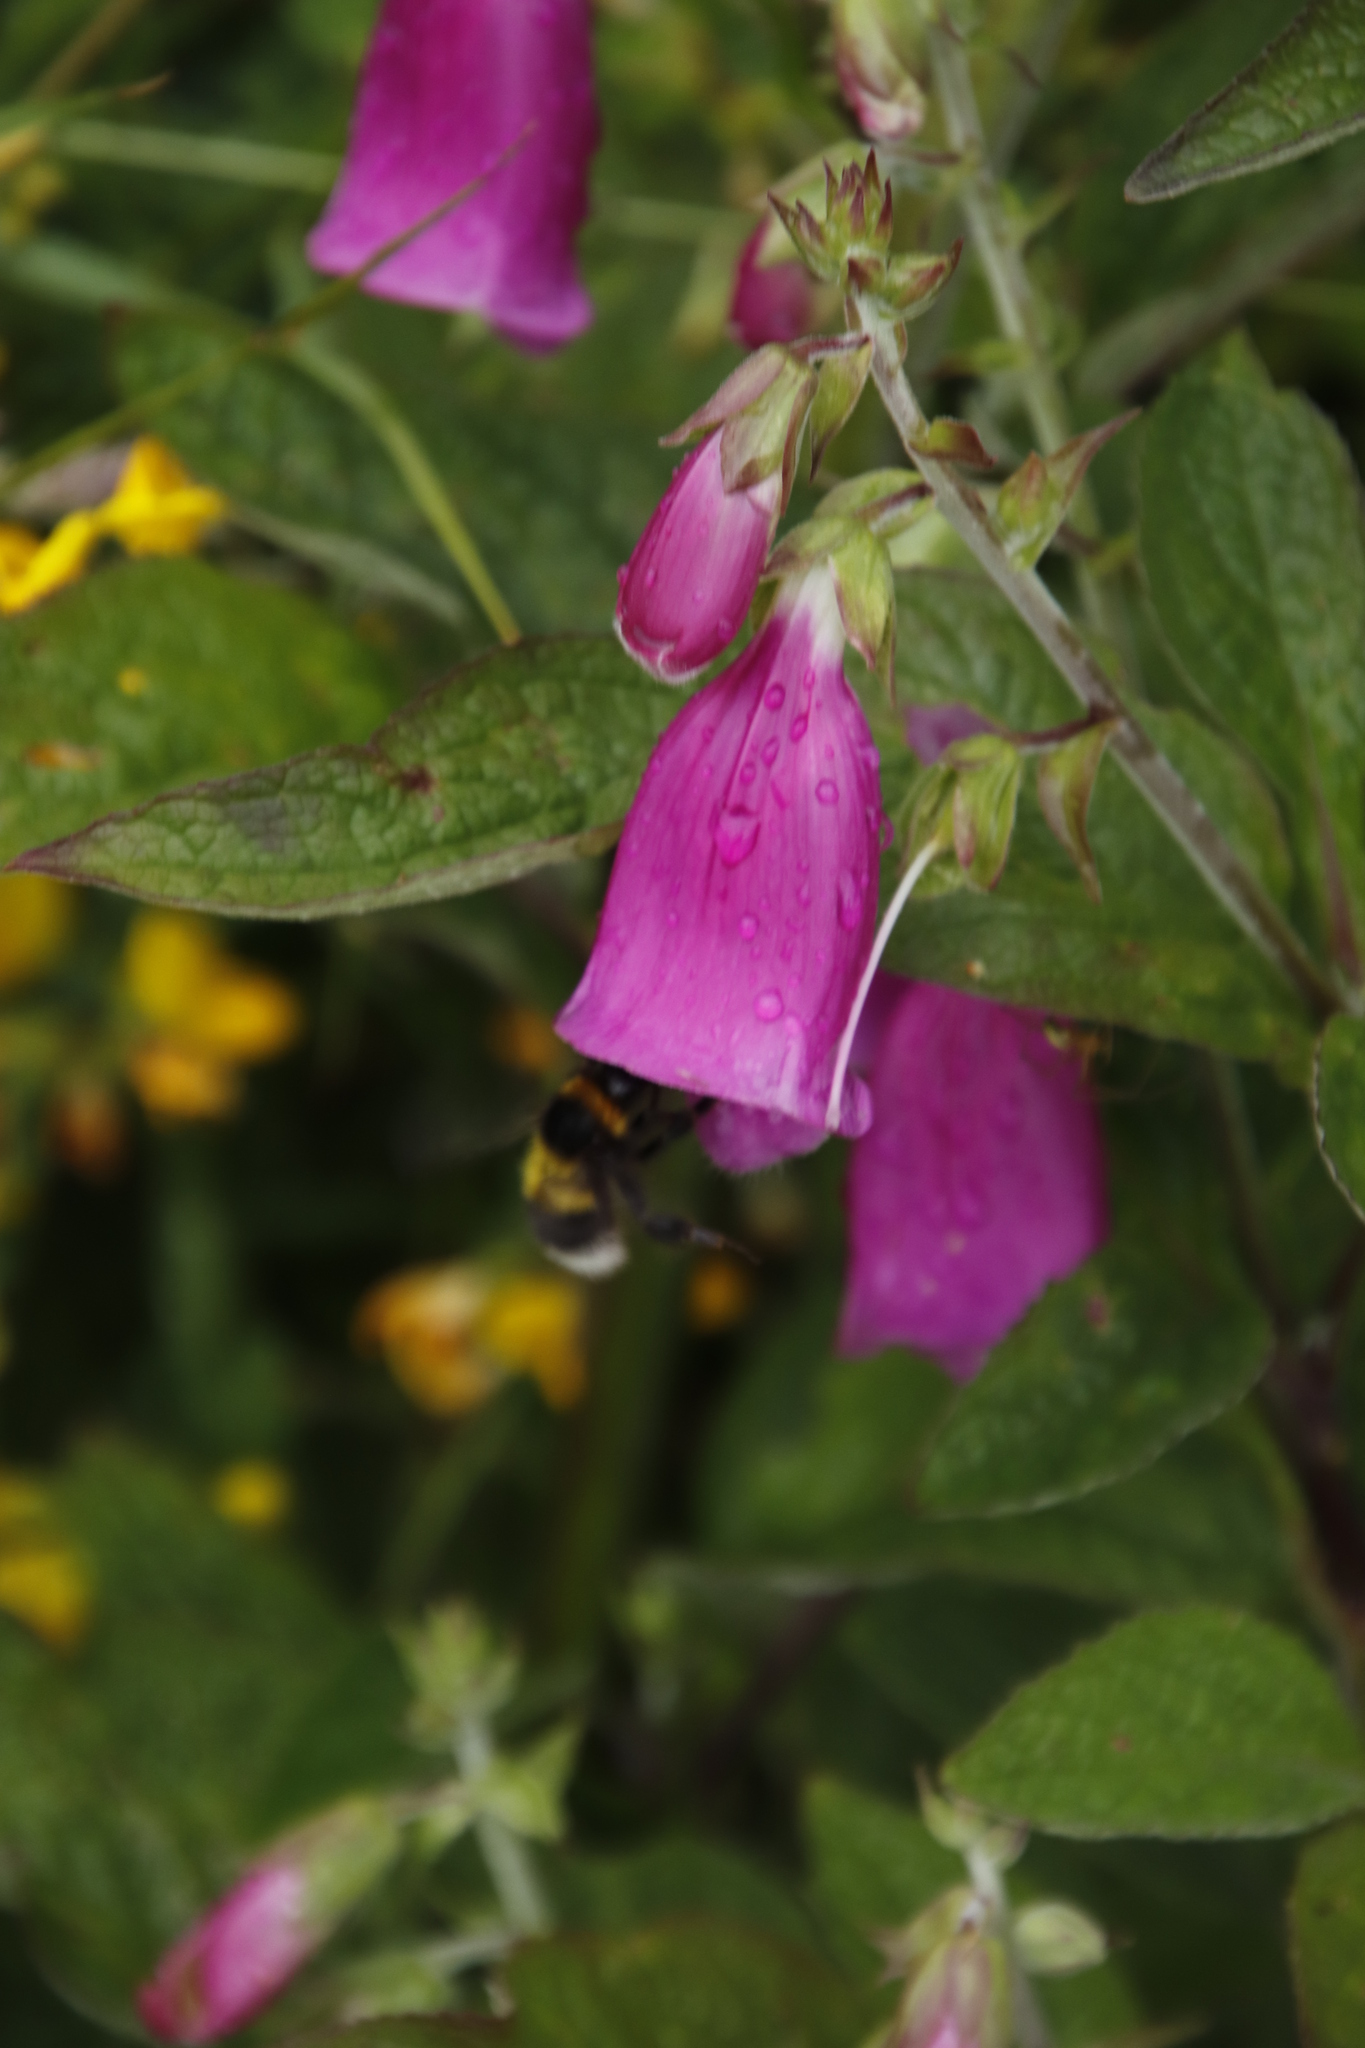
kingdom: Plantae
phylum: Tracheophyta
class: Magnoliopsida
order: Lamiales
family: Plantaginaceae
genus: Digitalis
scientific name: Digitalis purpurea
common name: Foxglove
